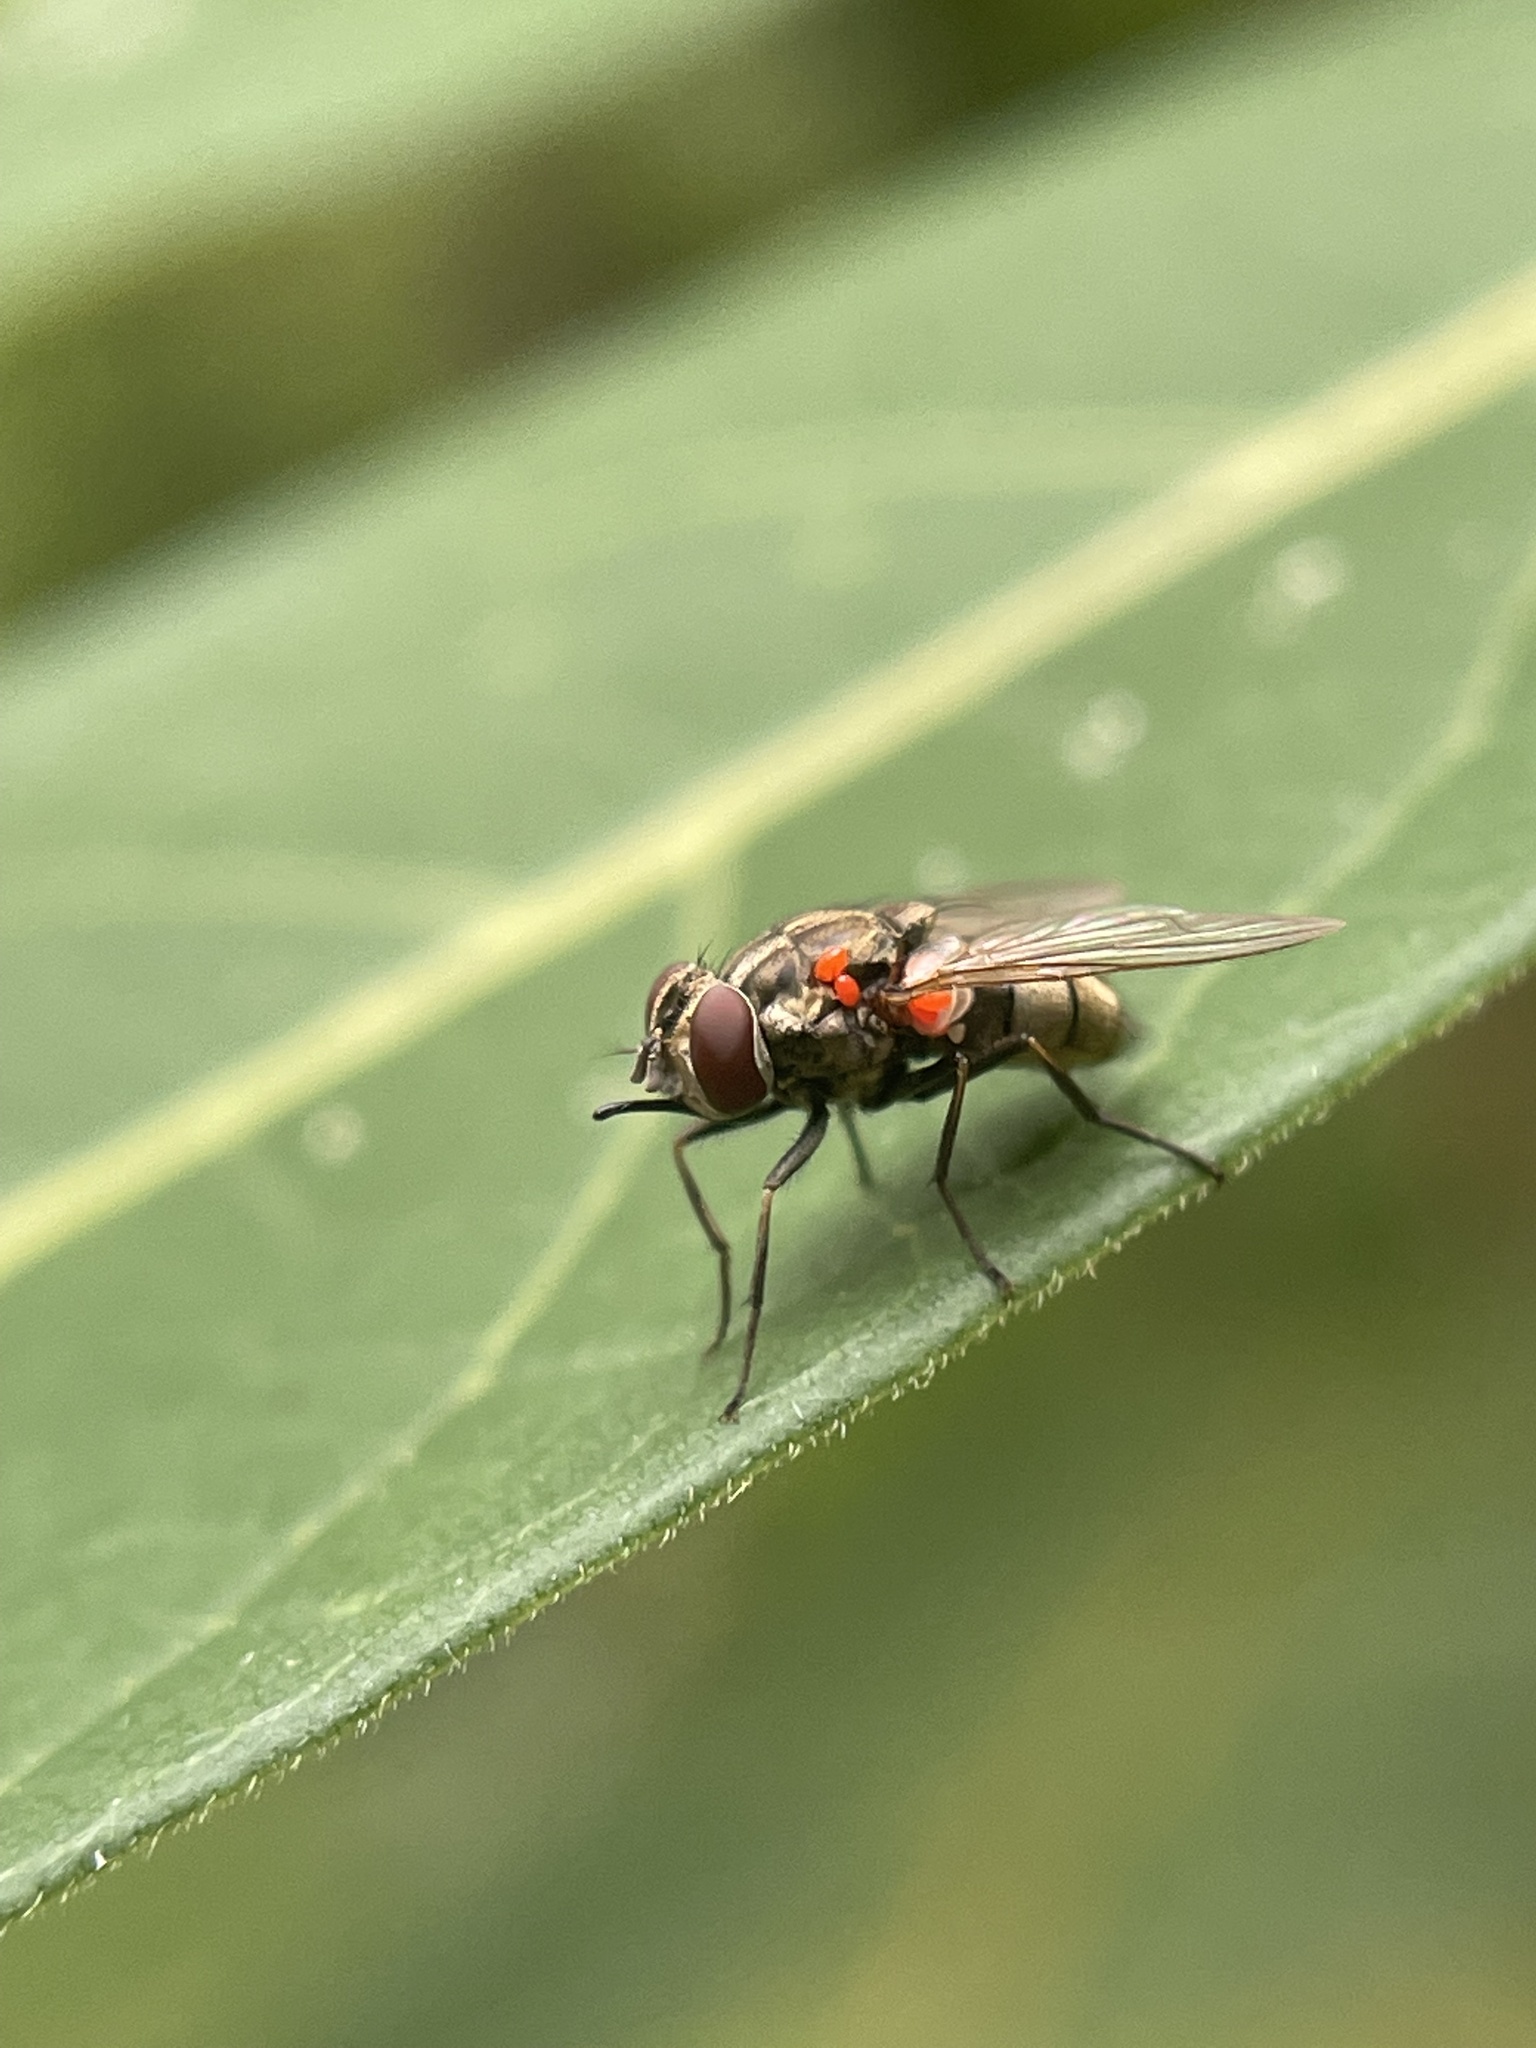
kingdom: Animalia
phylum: Arthropoda
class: Insecta
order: Diptera
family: Muscidae
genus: Stomoxys
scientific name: Stomoxys calcitrans
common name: Stable fly
